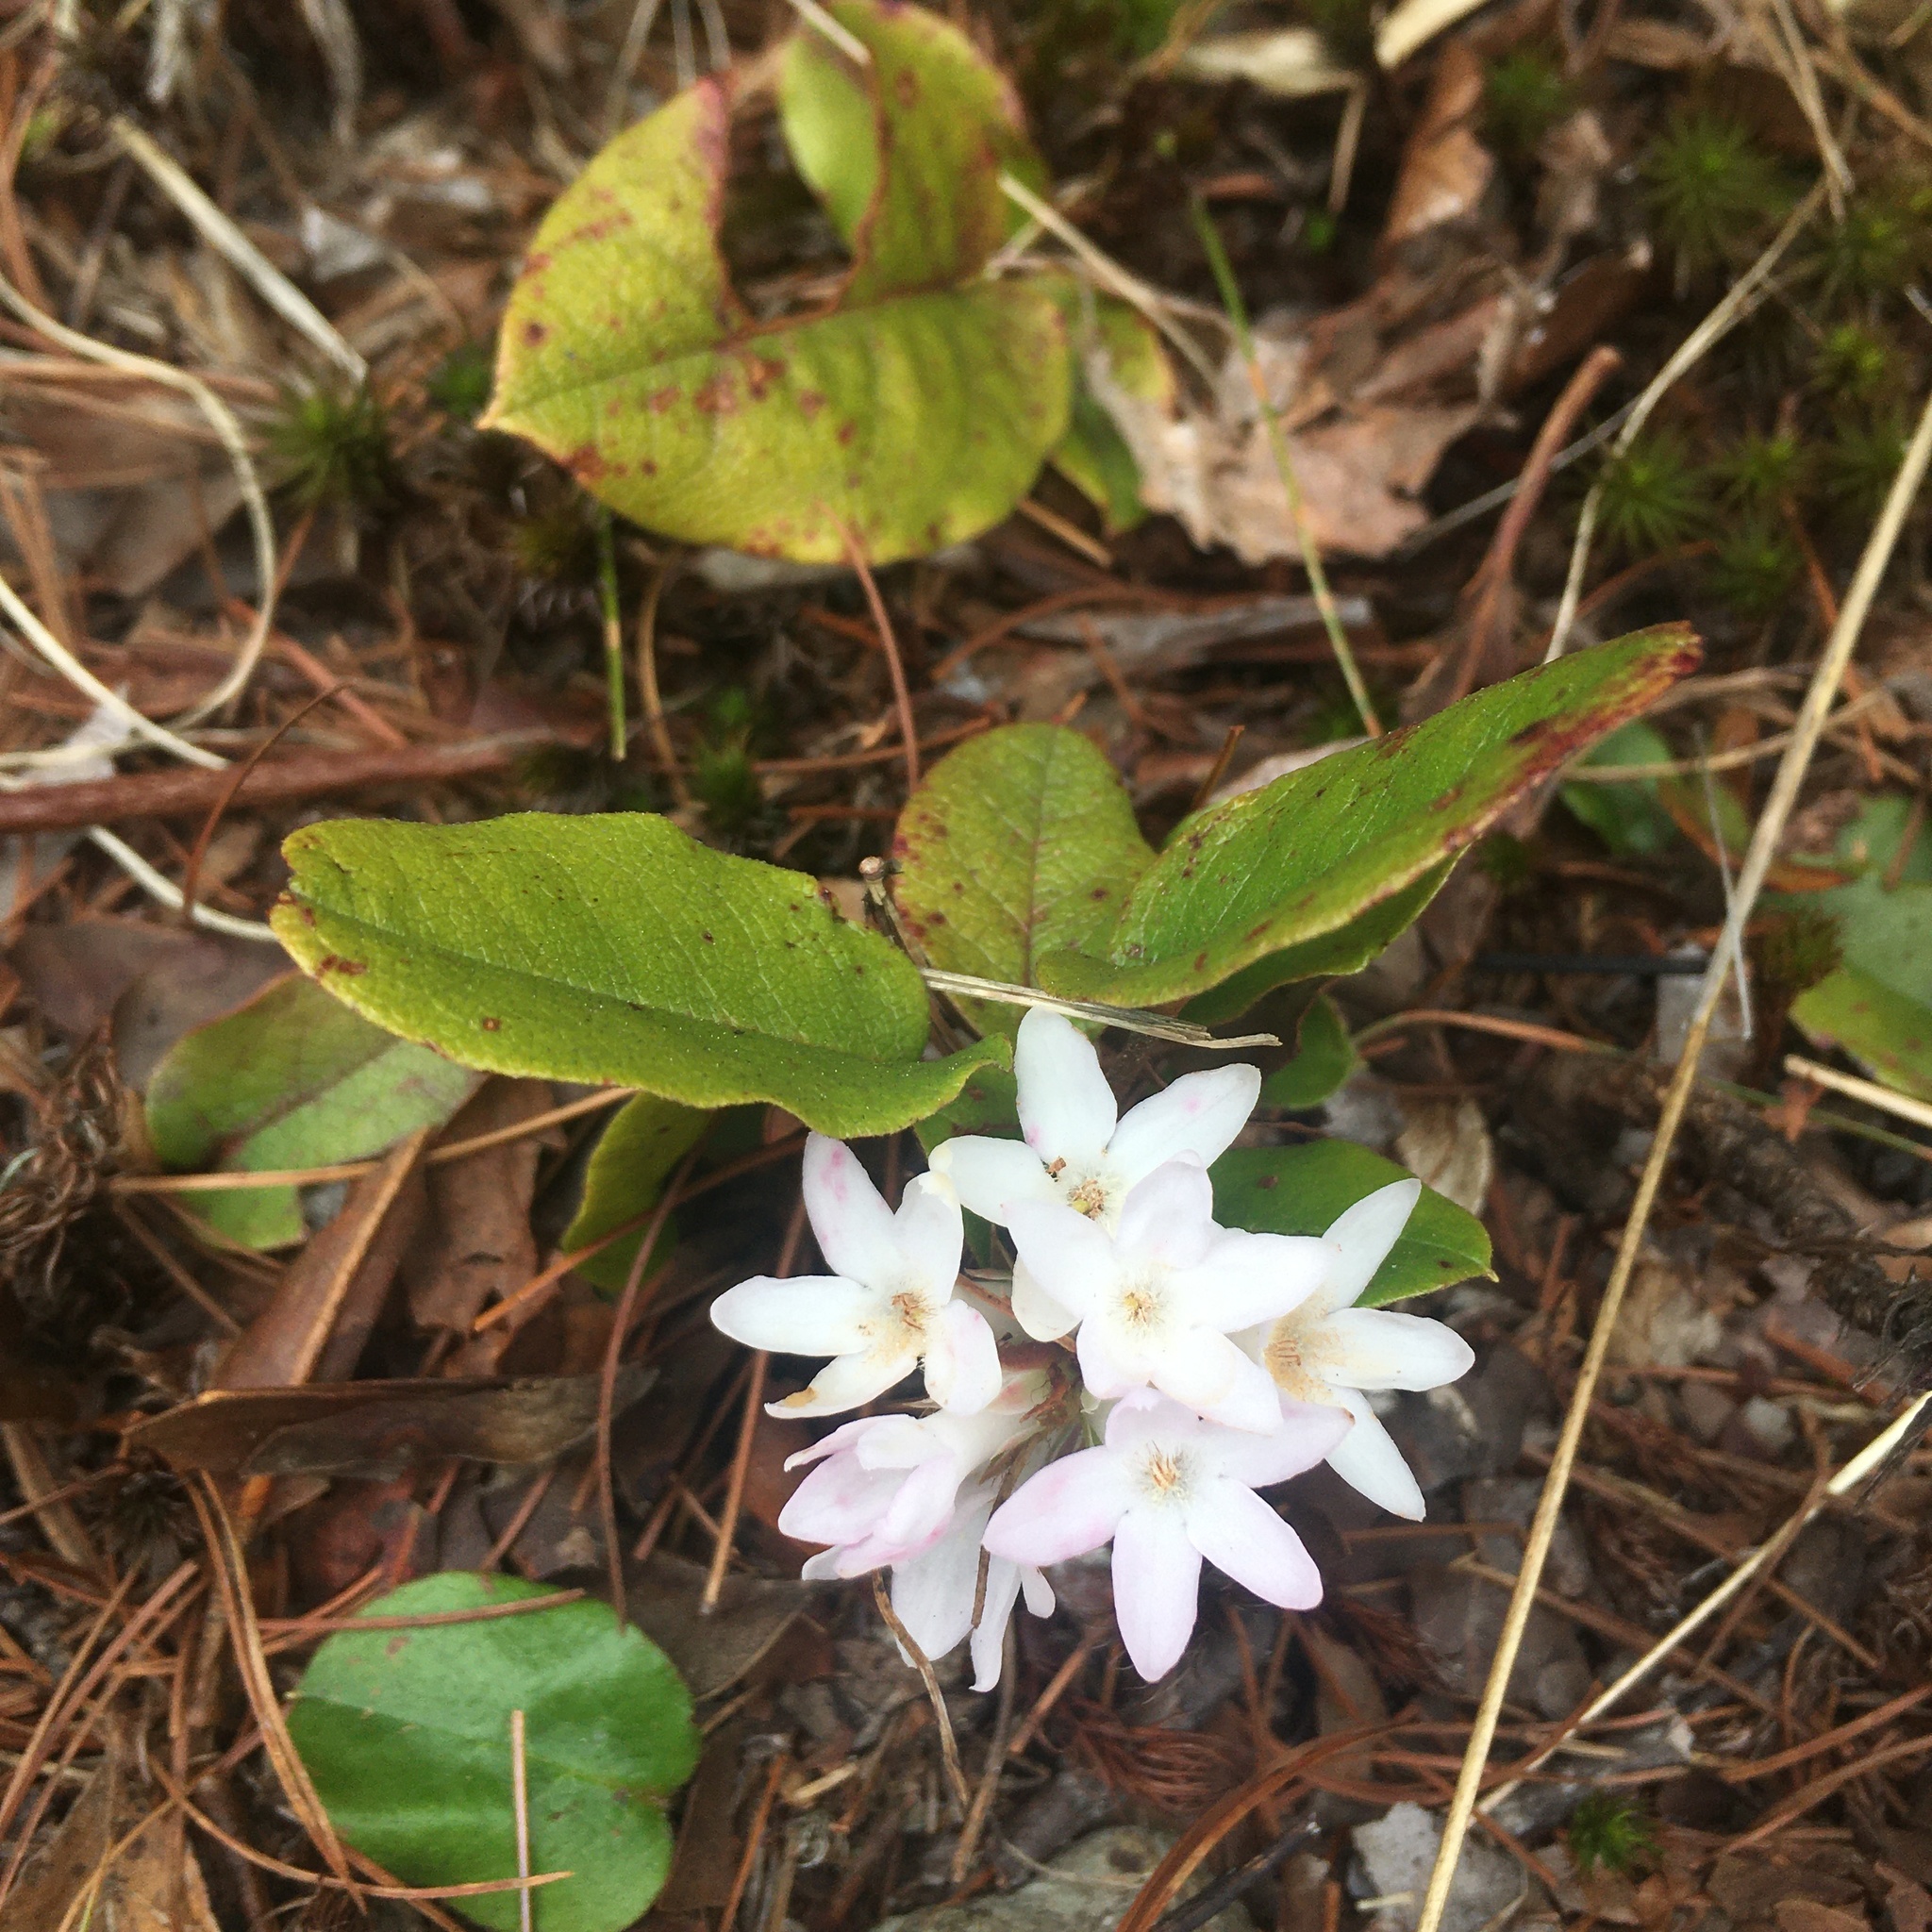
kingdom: Plantae
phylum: Tracheophyta
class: Magnoliopsida
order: Ericales
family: Ericaceae
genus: Epigaea
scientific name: Epigaea repens
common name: Gravelroot
